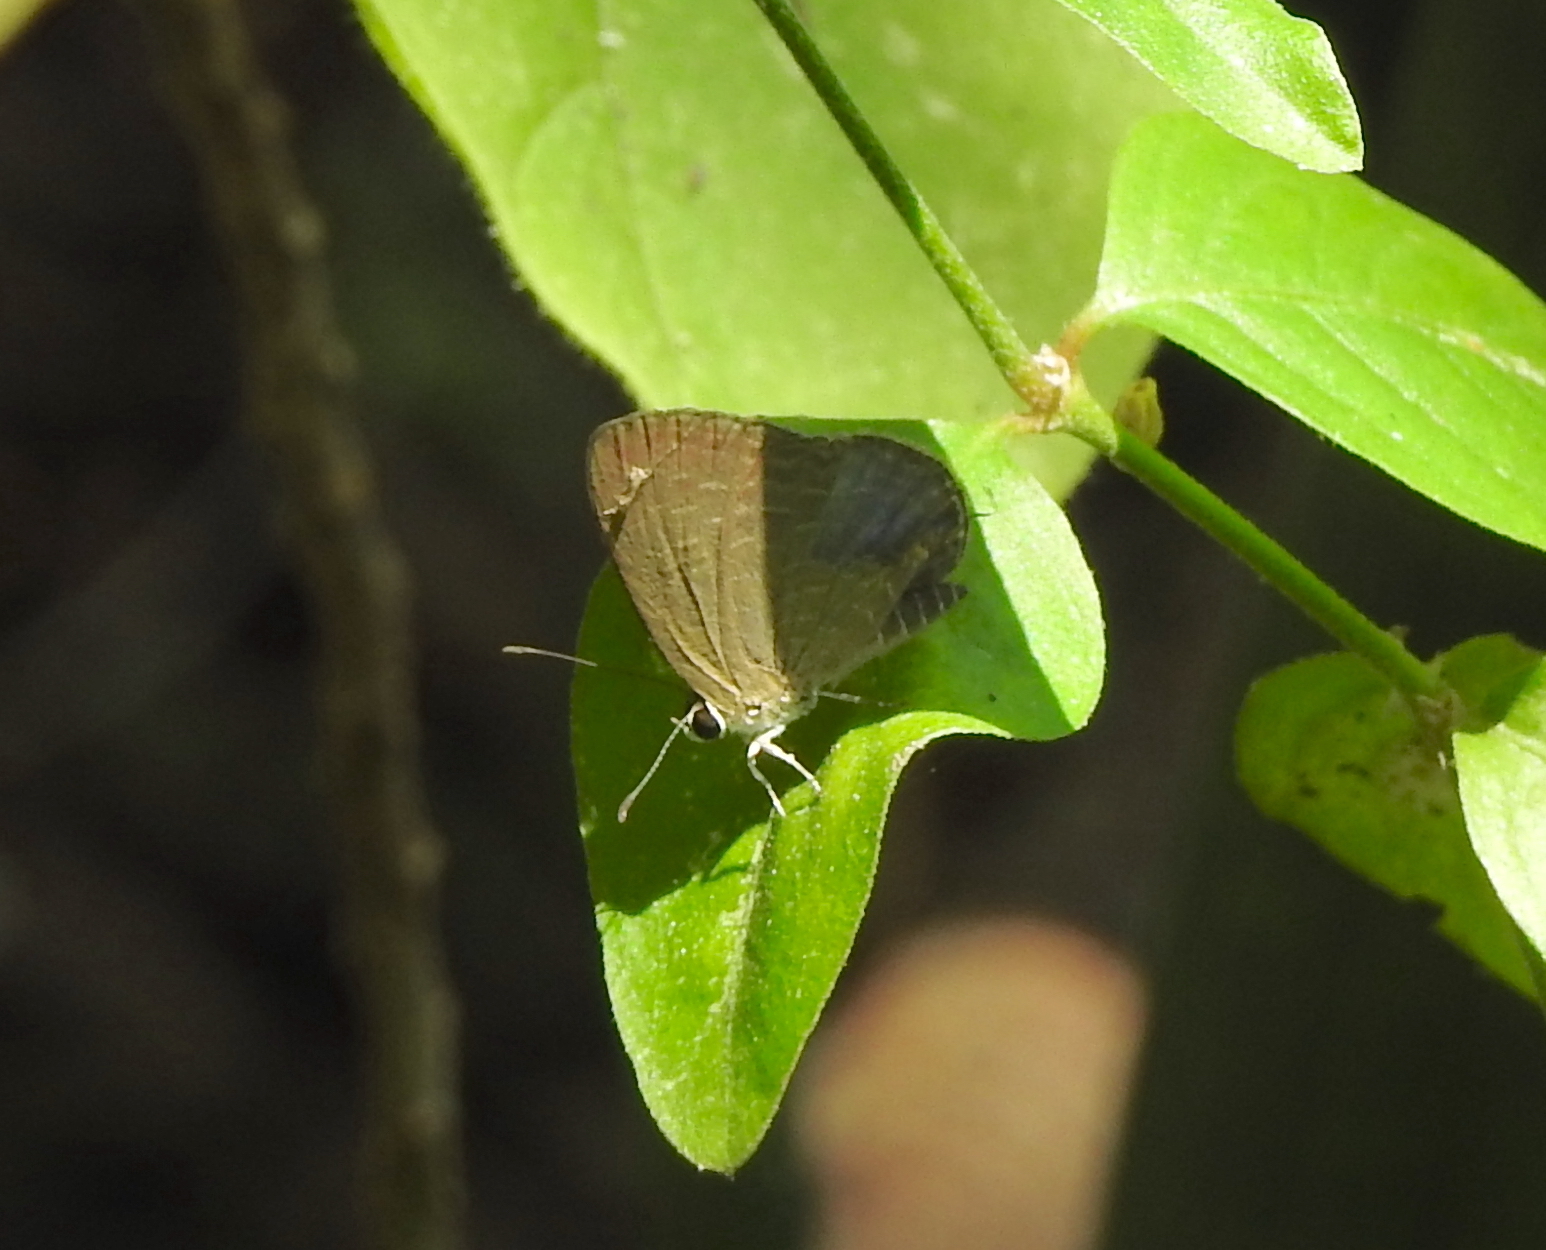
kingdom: Animalia
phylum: Arthropoda
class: Insecta
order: Lepidoptera
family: Lycaenidae
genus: Jamides
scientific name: Jamides bochus
